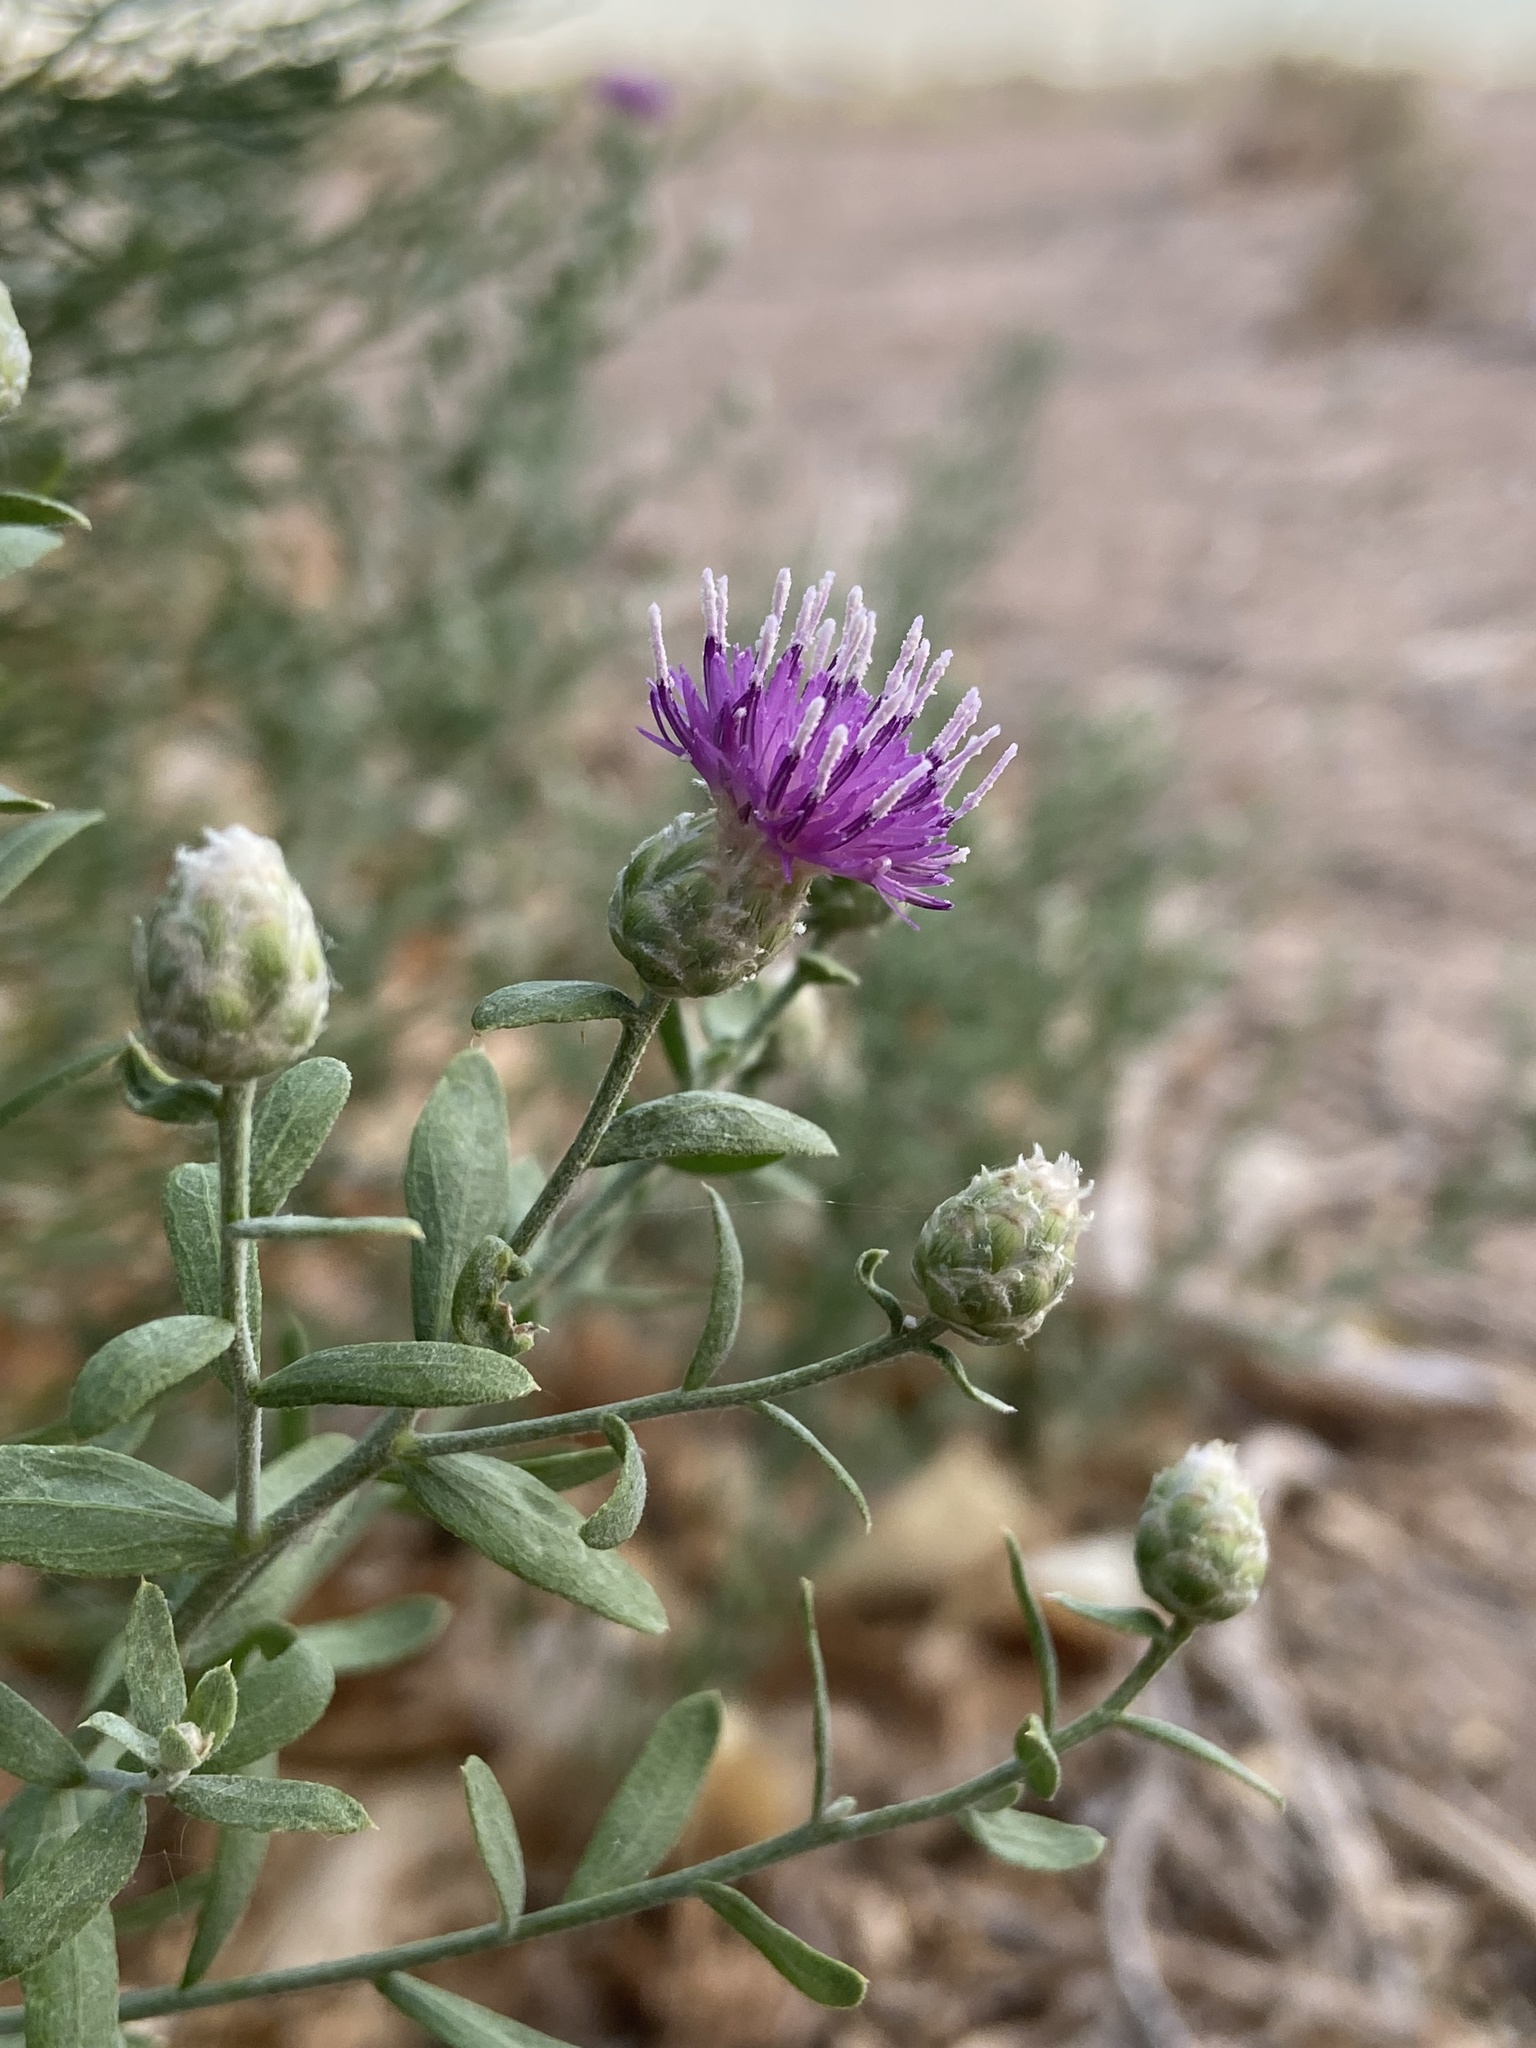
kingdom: Plantae
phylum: Tracheophyta
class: Magnoliopsida
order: Asterales
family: Asteraceae
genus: Leuzea
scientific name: Leuzea repens
